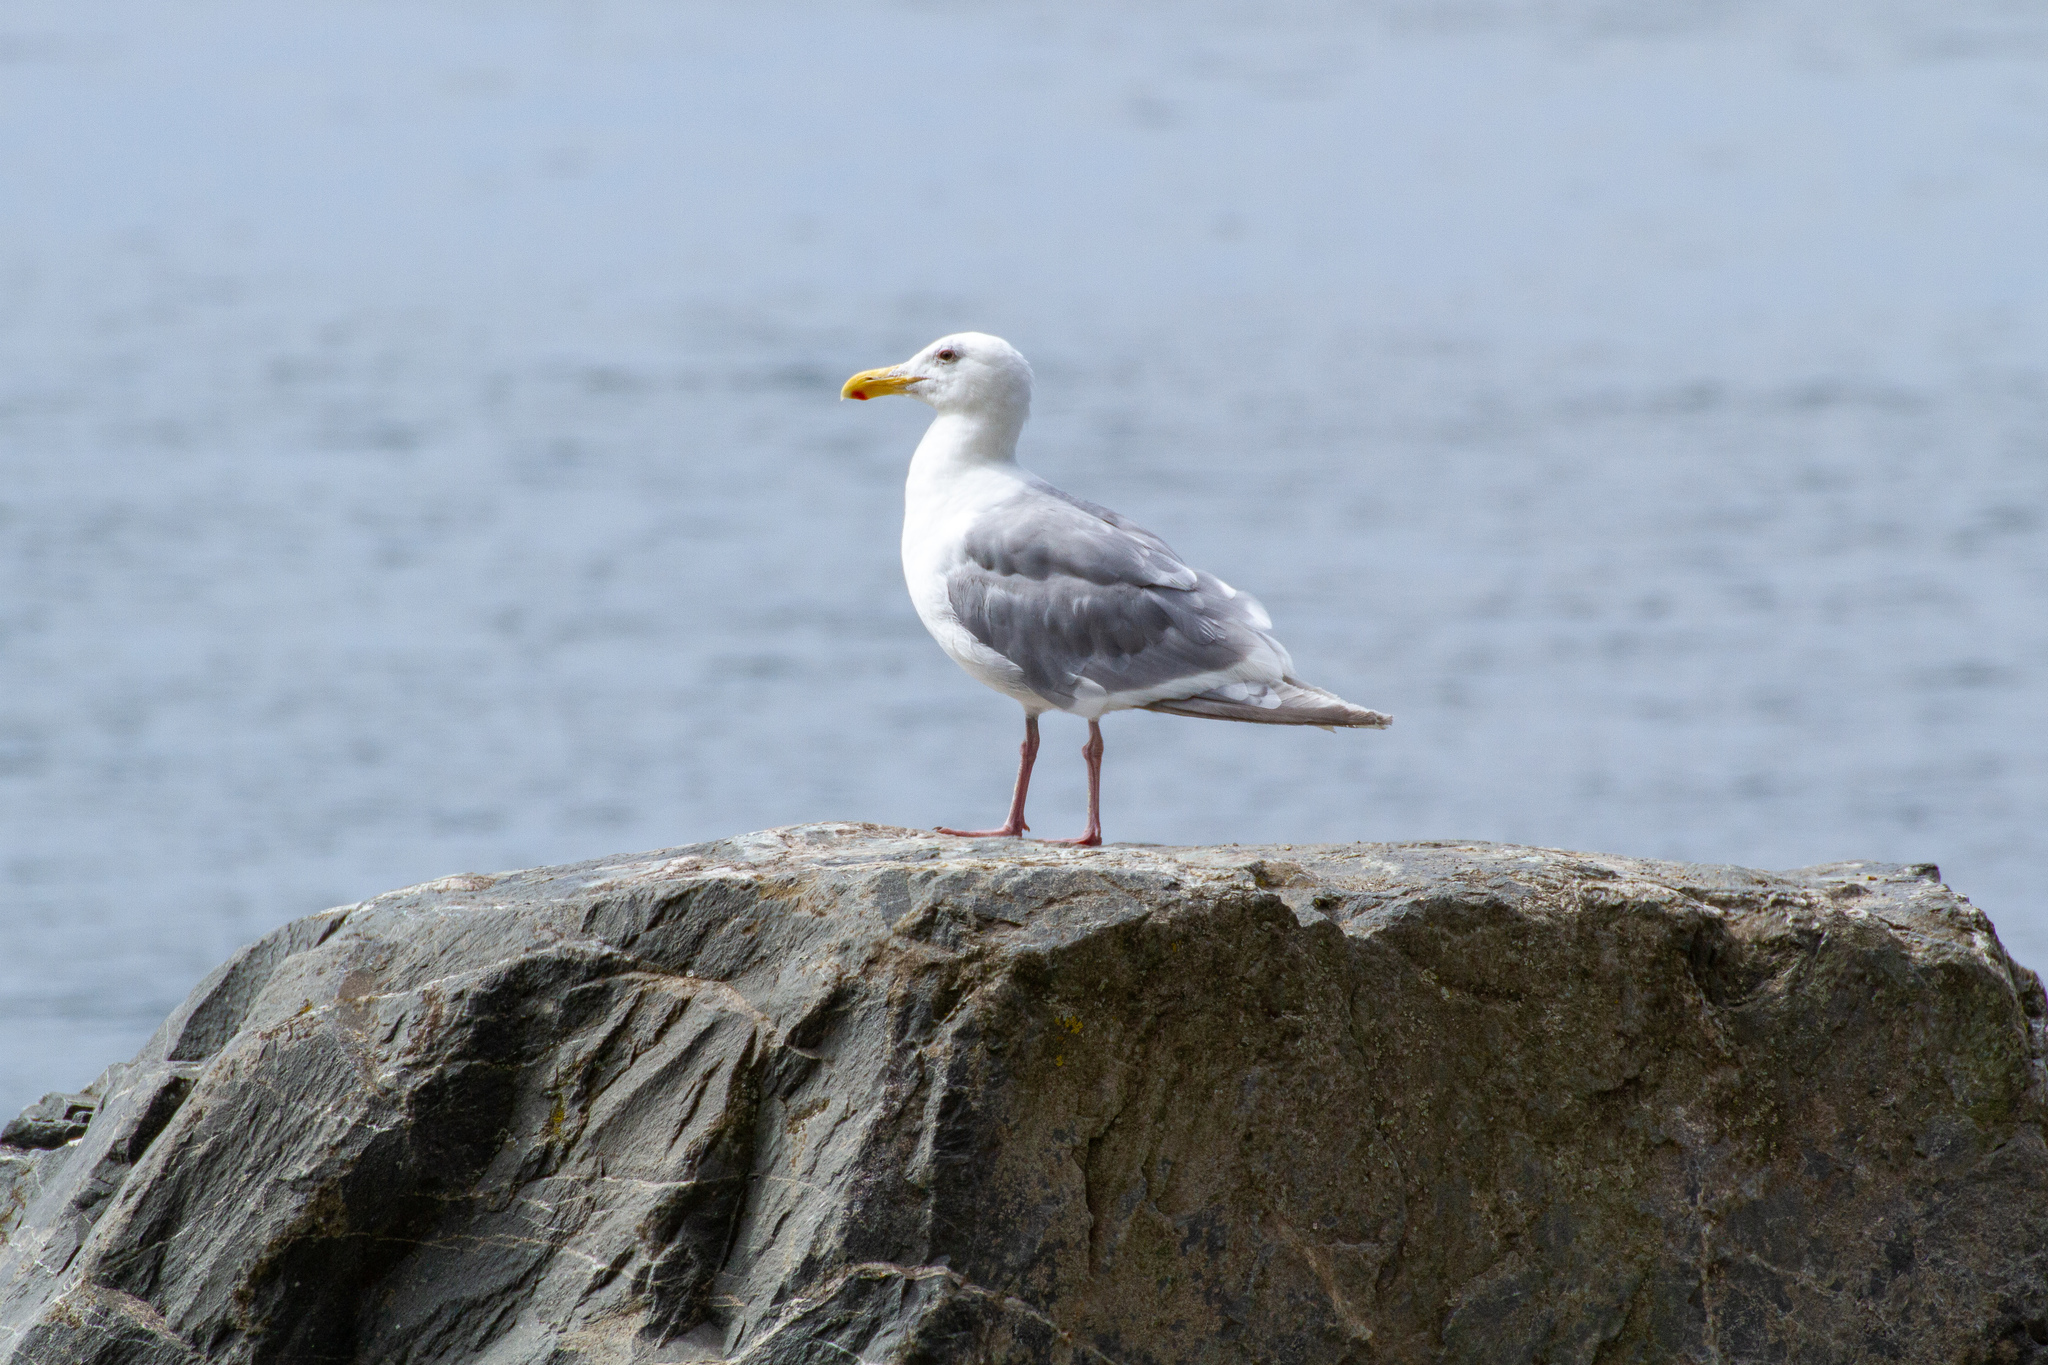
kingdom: Animalia
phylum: Chordata
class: Aves
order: Charadriiformes
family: Laridae
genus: Larus
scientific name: Larus glaucescens
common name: Glaucous-winged gull
